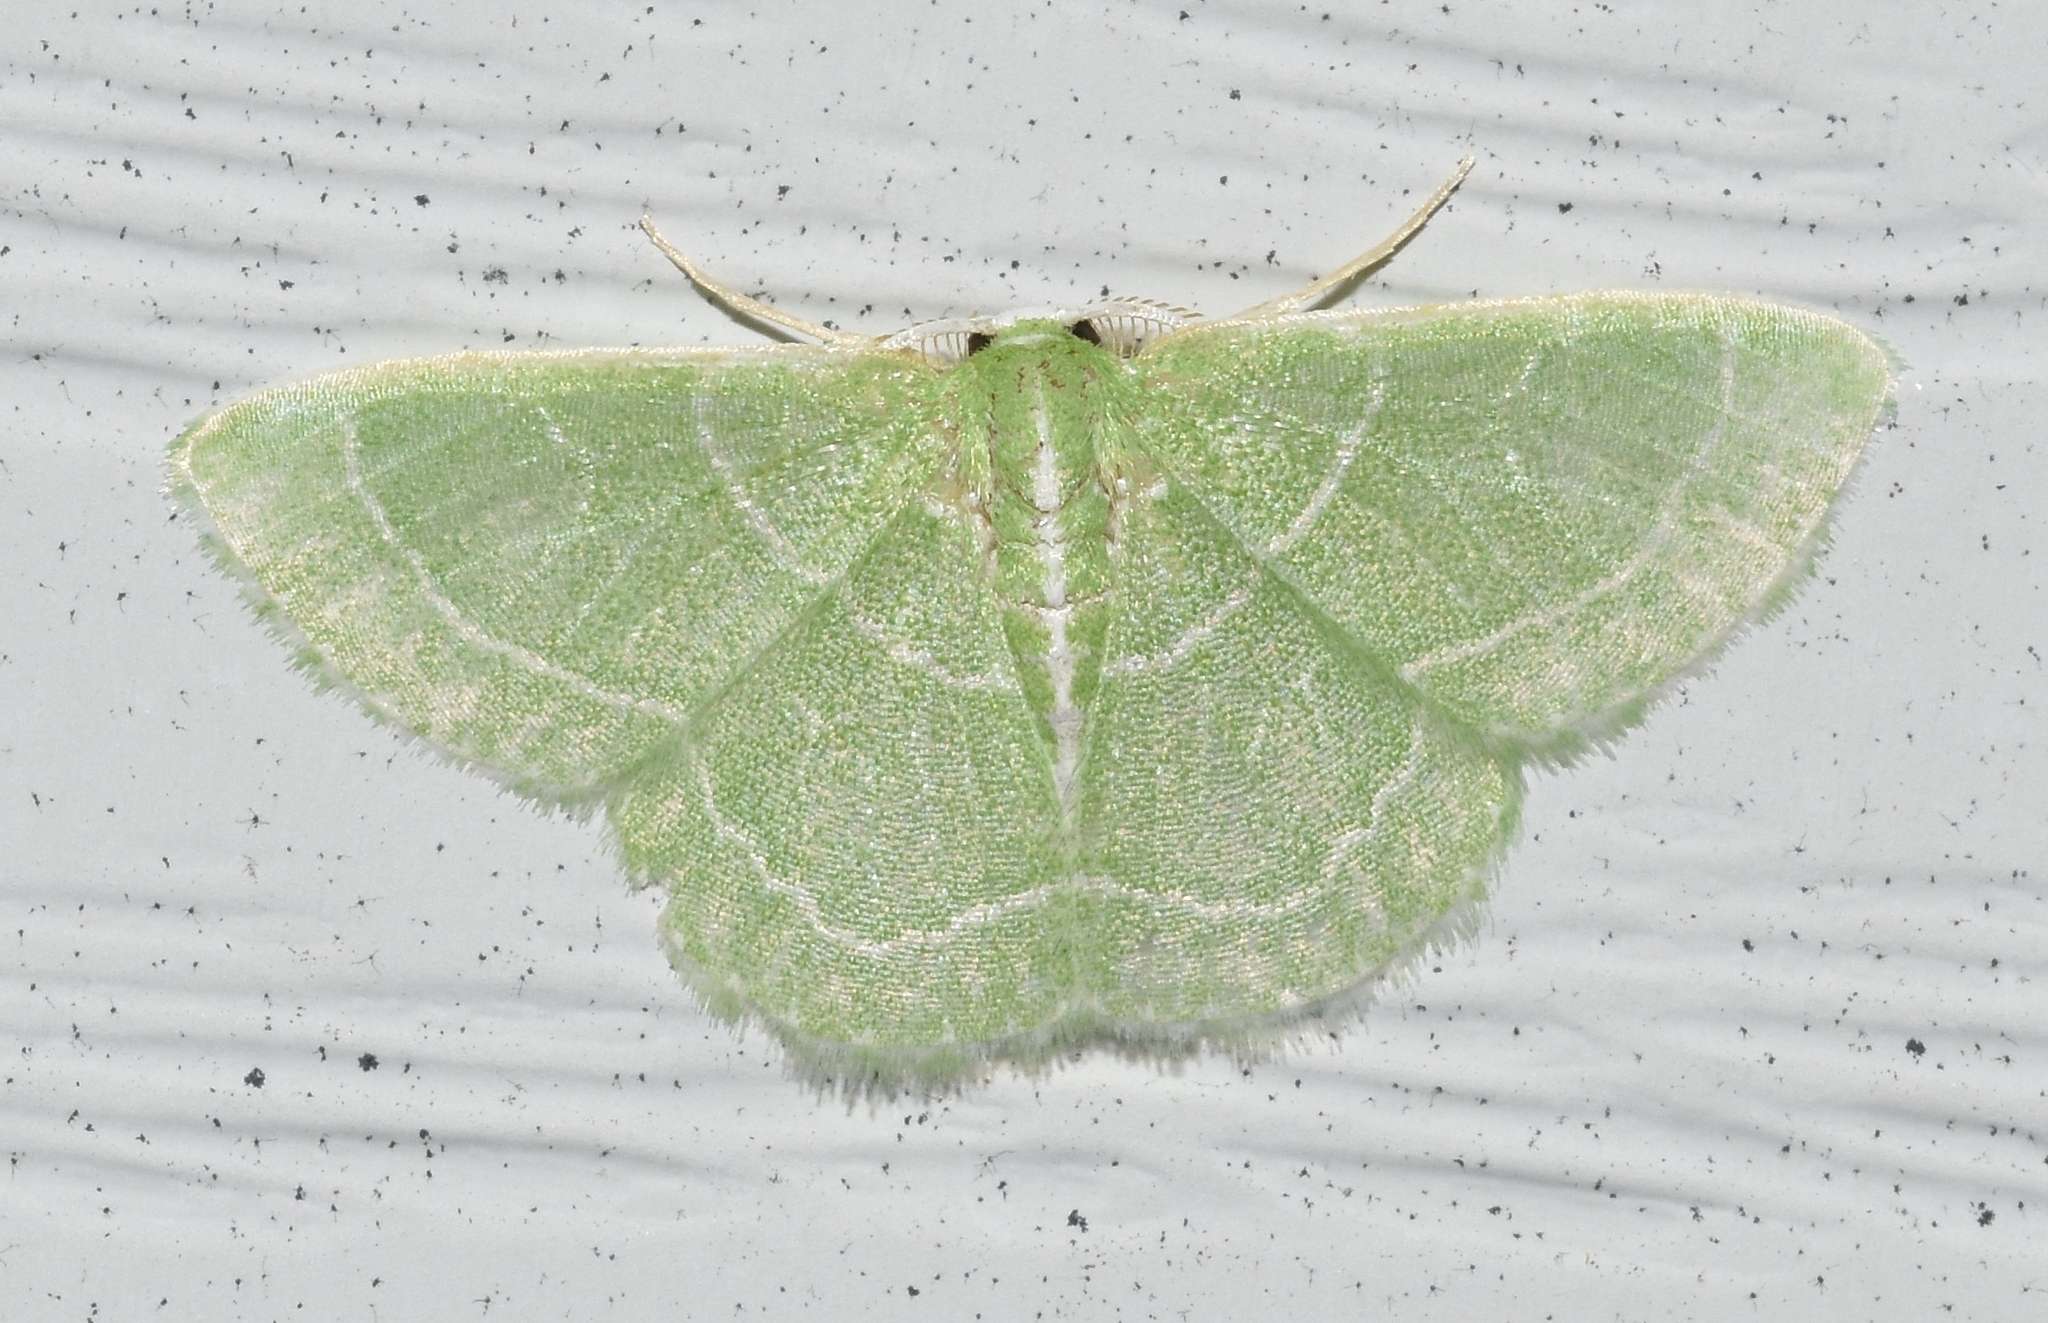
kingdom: Animalia
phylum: Arthropoda
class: Insecta
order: Lepidoptera
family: Geometridae
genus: Synchlora
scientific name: Synchlora aerata
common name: Wavy-lined emerald
